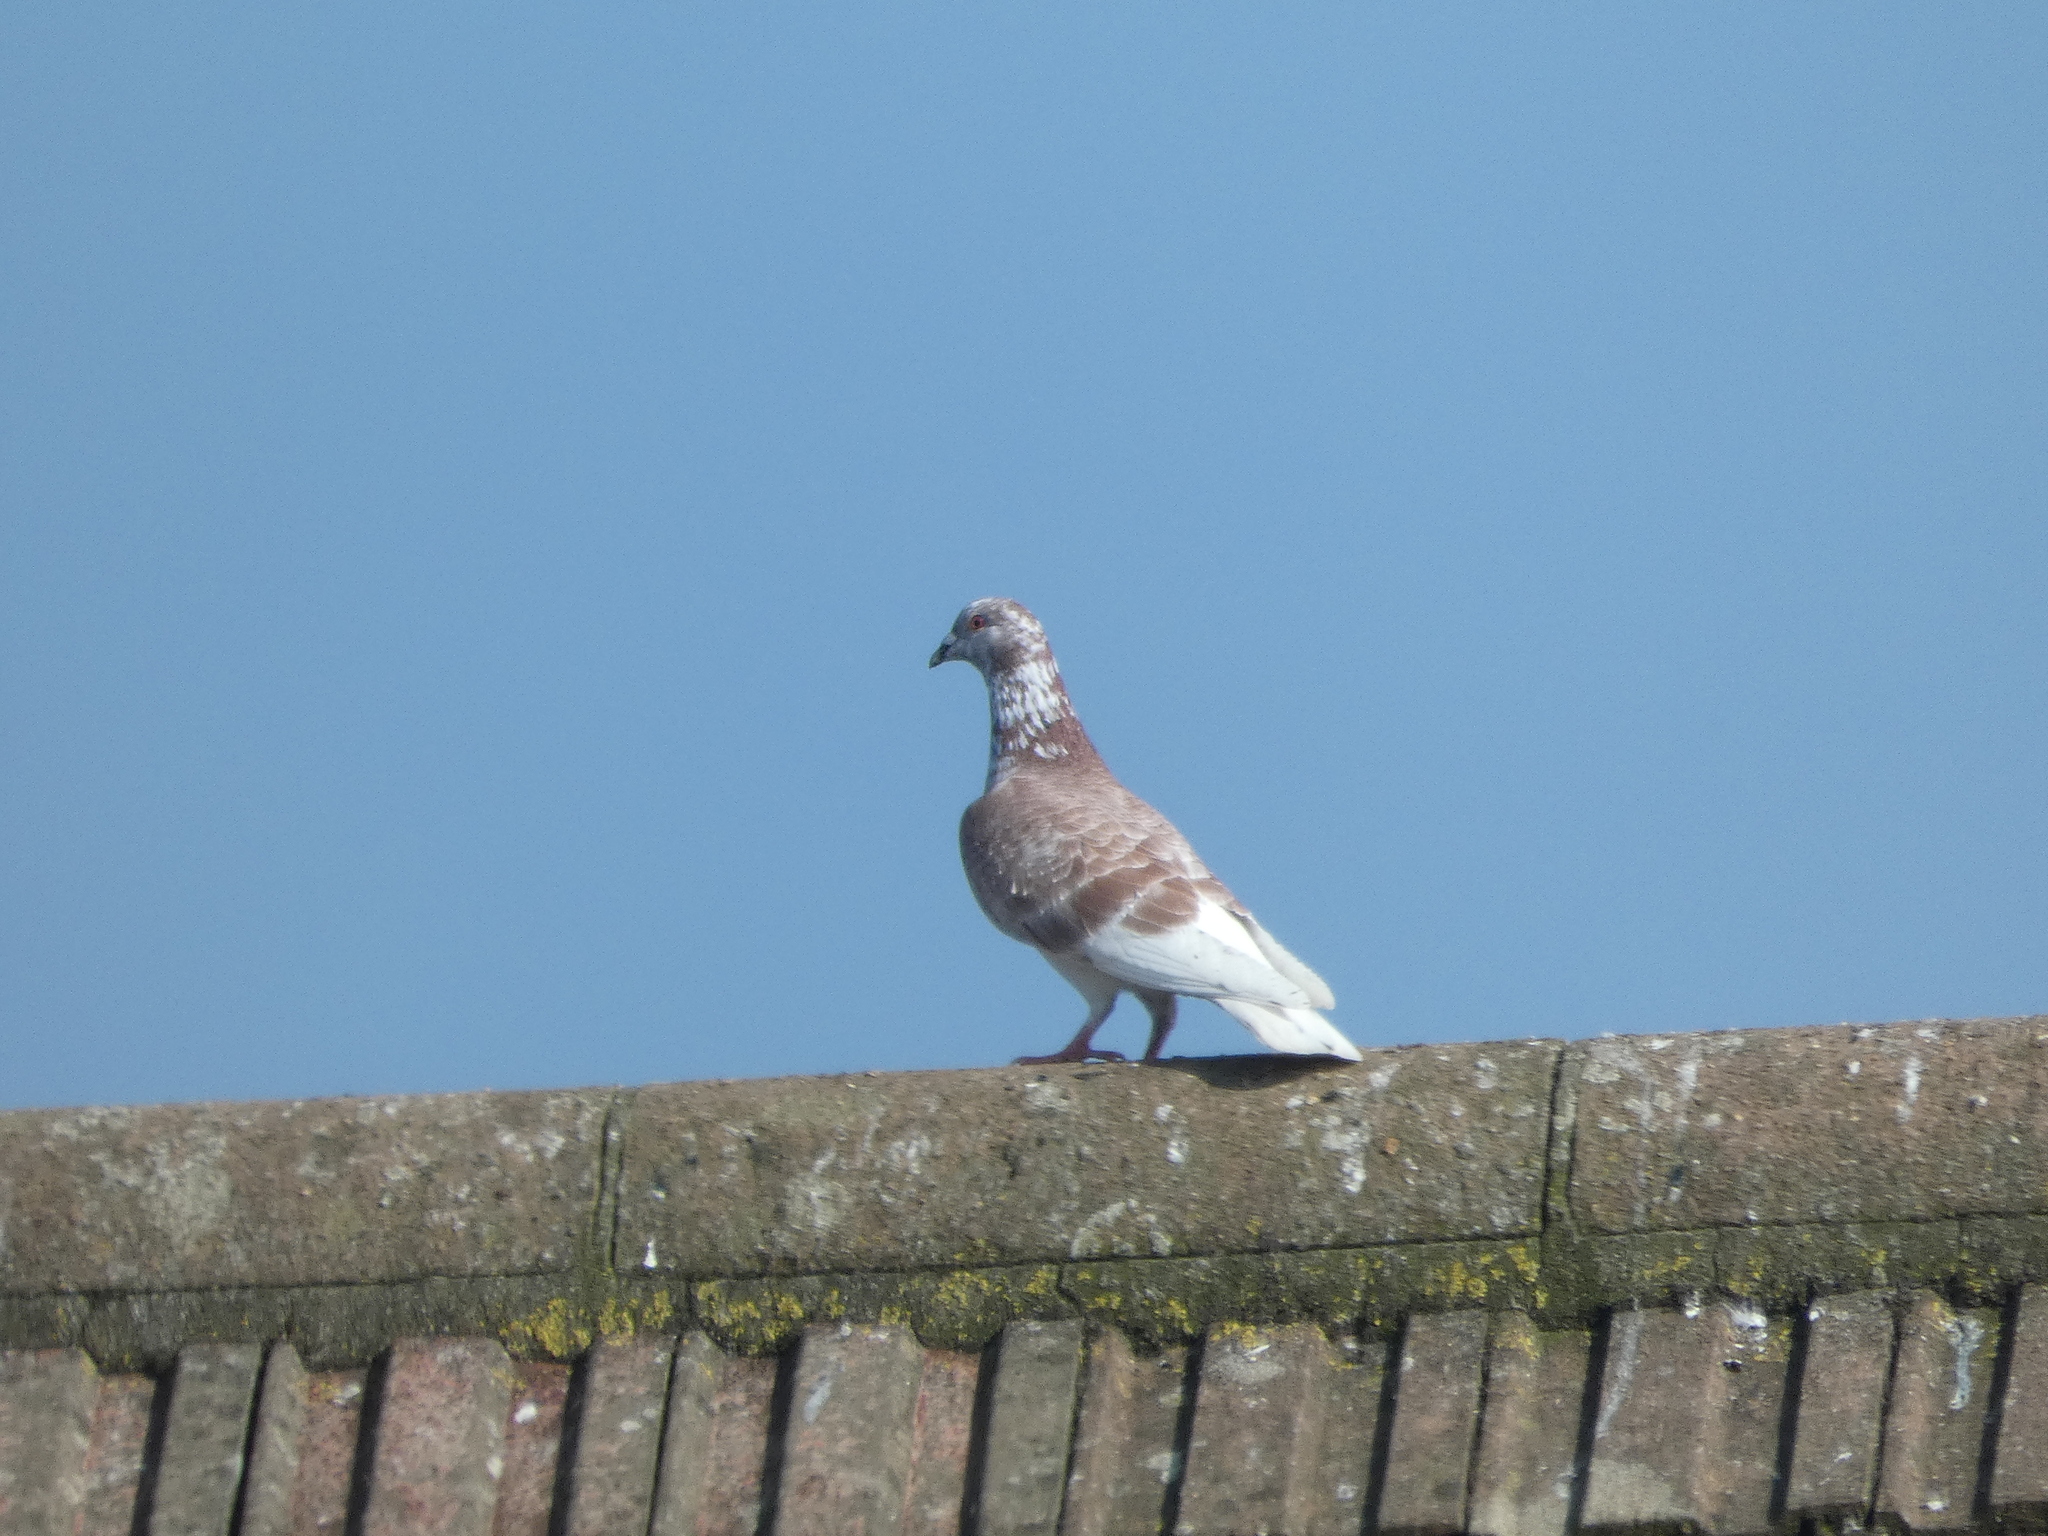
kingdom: Animalia
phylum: Chordata
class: Aves
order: Columbiformes
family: Columbidae
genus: Columba
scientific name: Columba livia
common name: Rock pigeon
